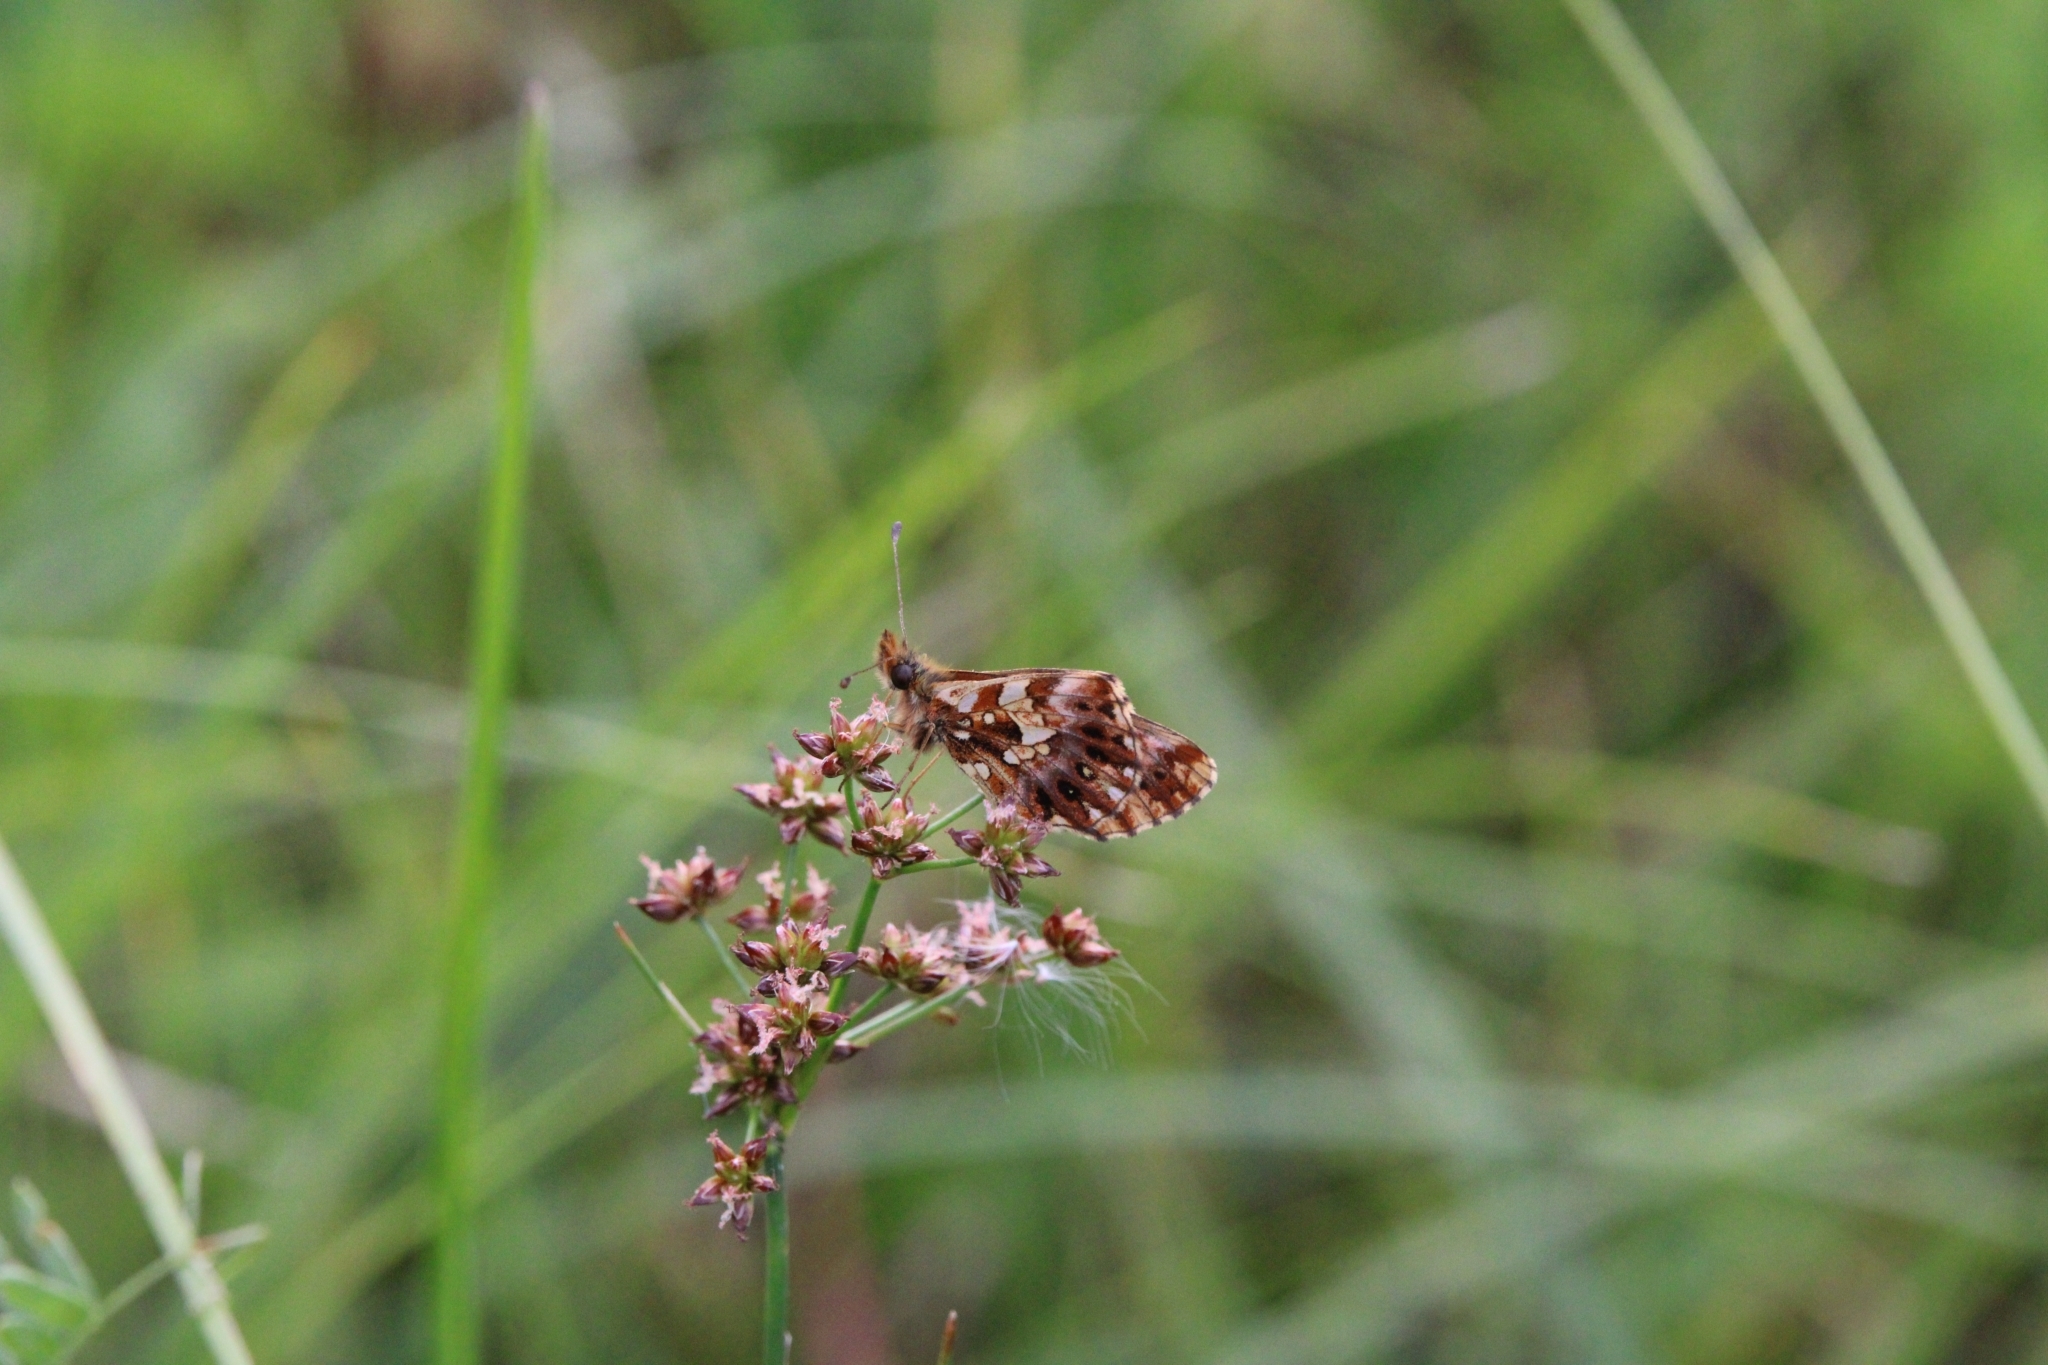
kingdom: Animalia
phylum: Arthropoda
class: Insecta
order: Lepidoptera
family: Nymphalidae
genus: Boloria
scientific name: Boloria dia
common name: Weaver's fritillary
